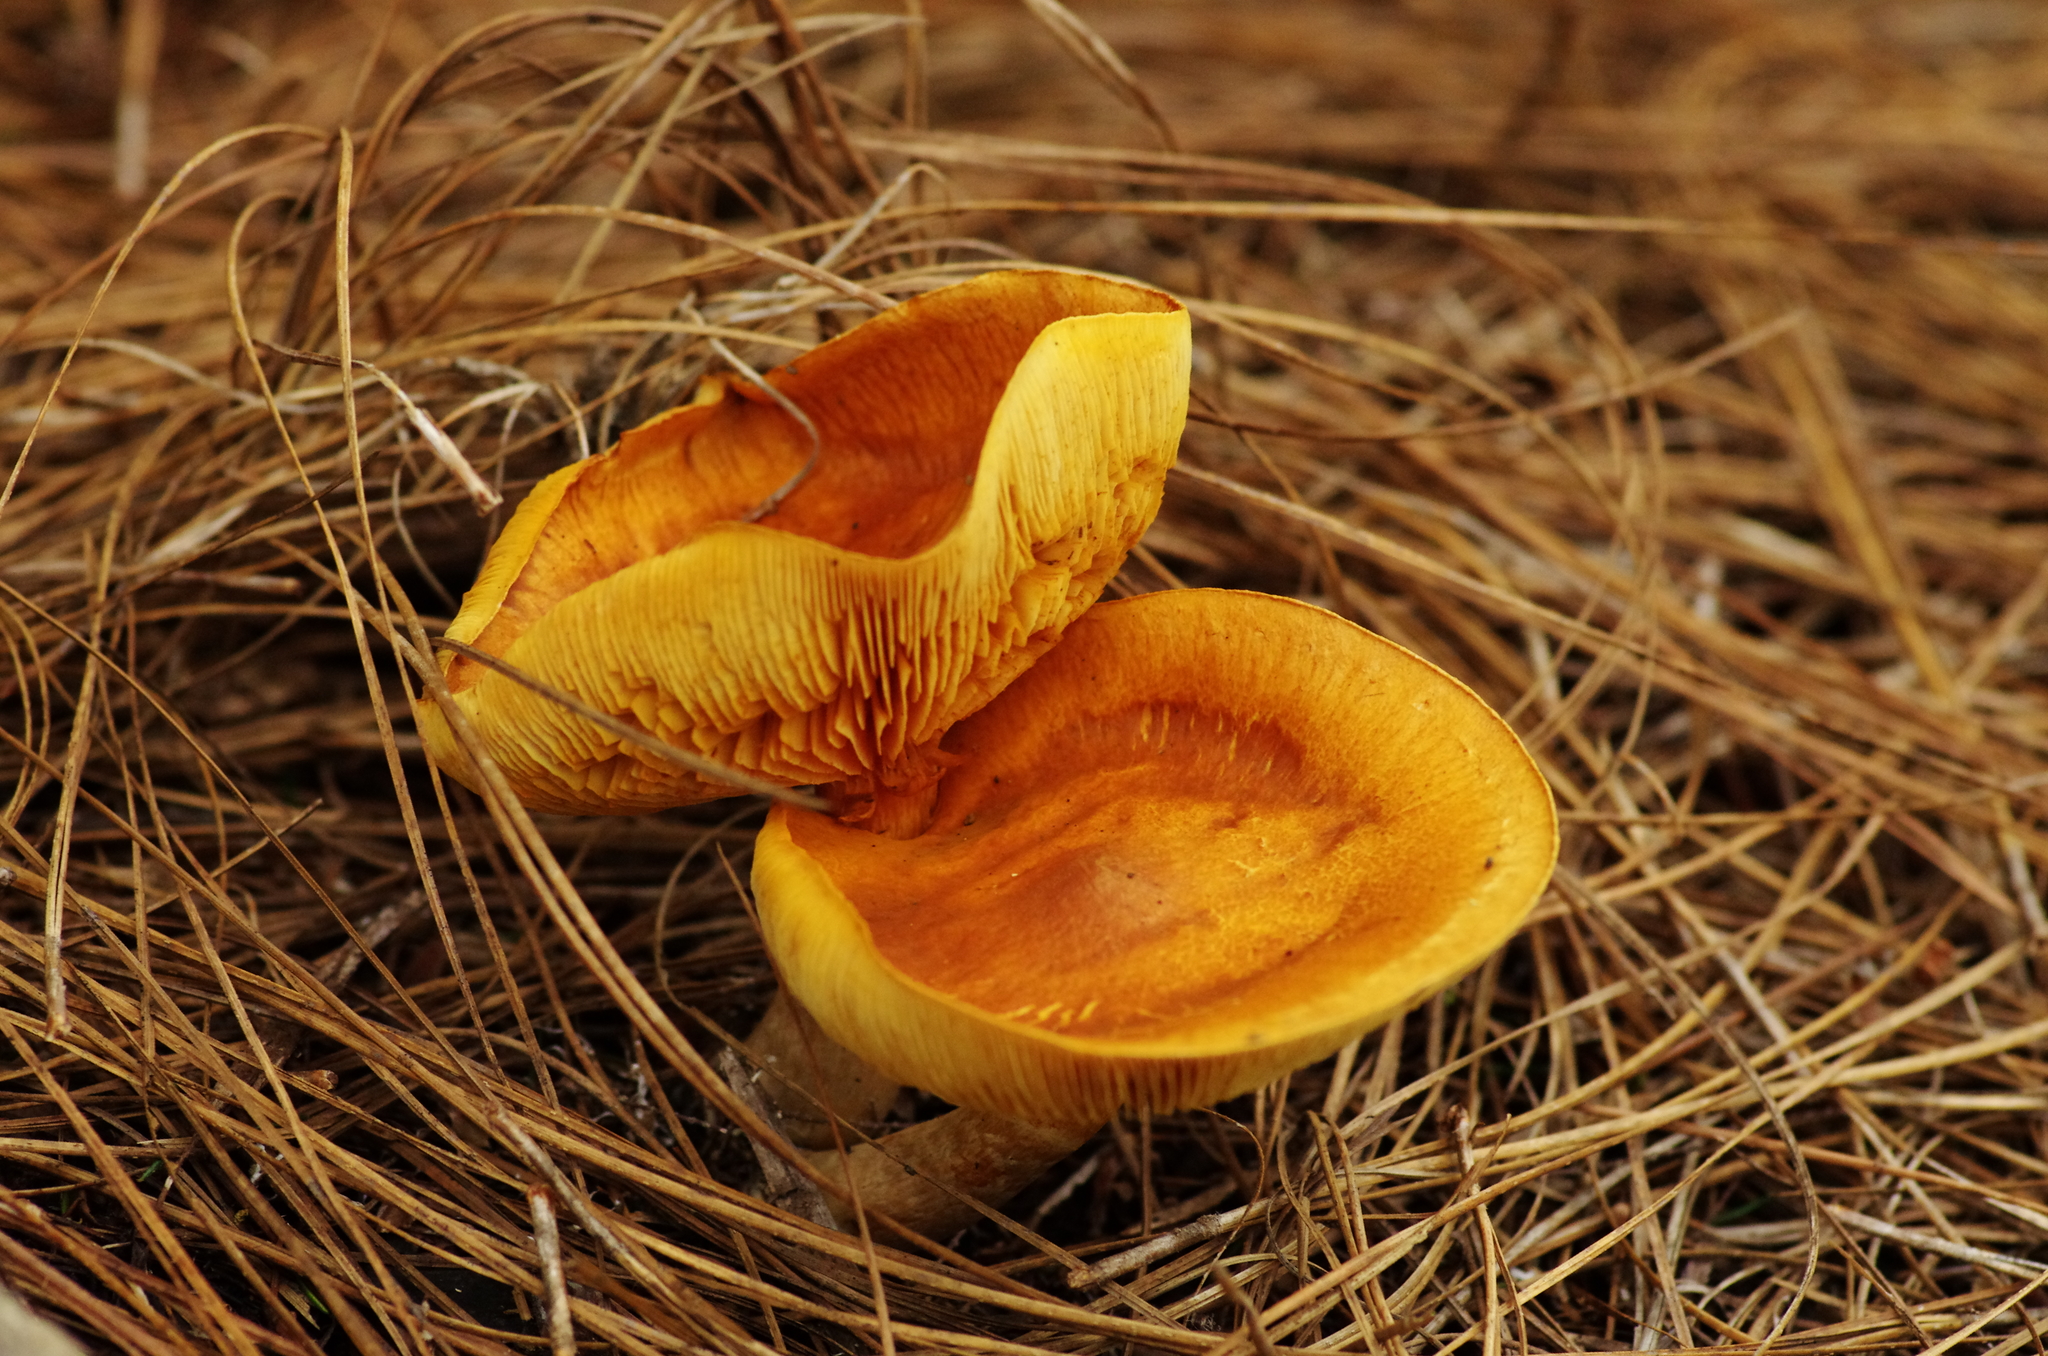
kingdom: Fungi
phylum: Basidiomycota
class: Agaricomycetes
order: Agaricales
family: Hymenogastraceae
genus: Gymnopilus
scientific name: Gymnopilus penetrans
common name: Common rustgill
